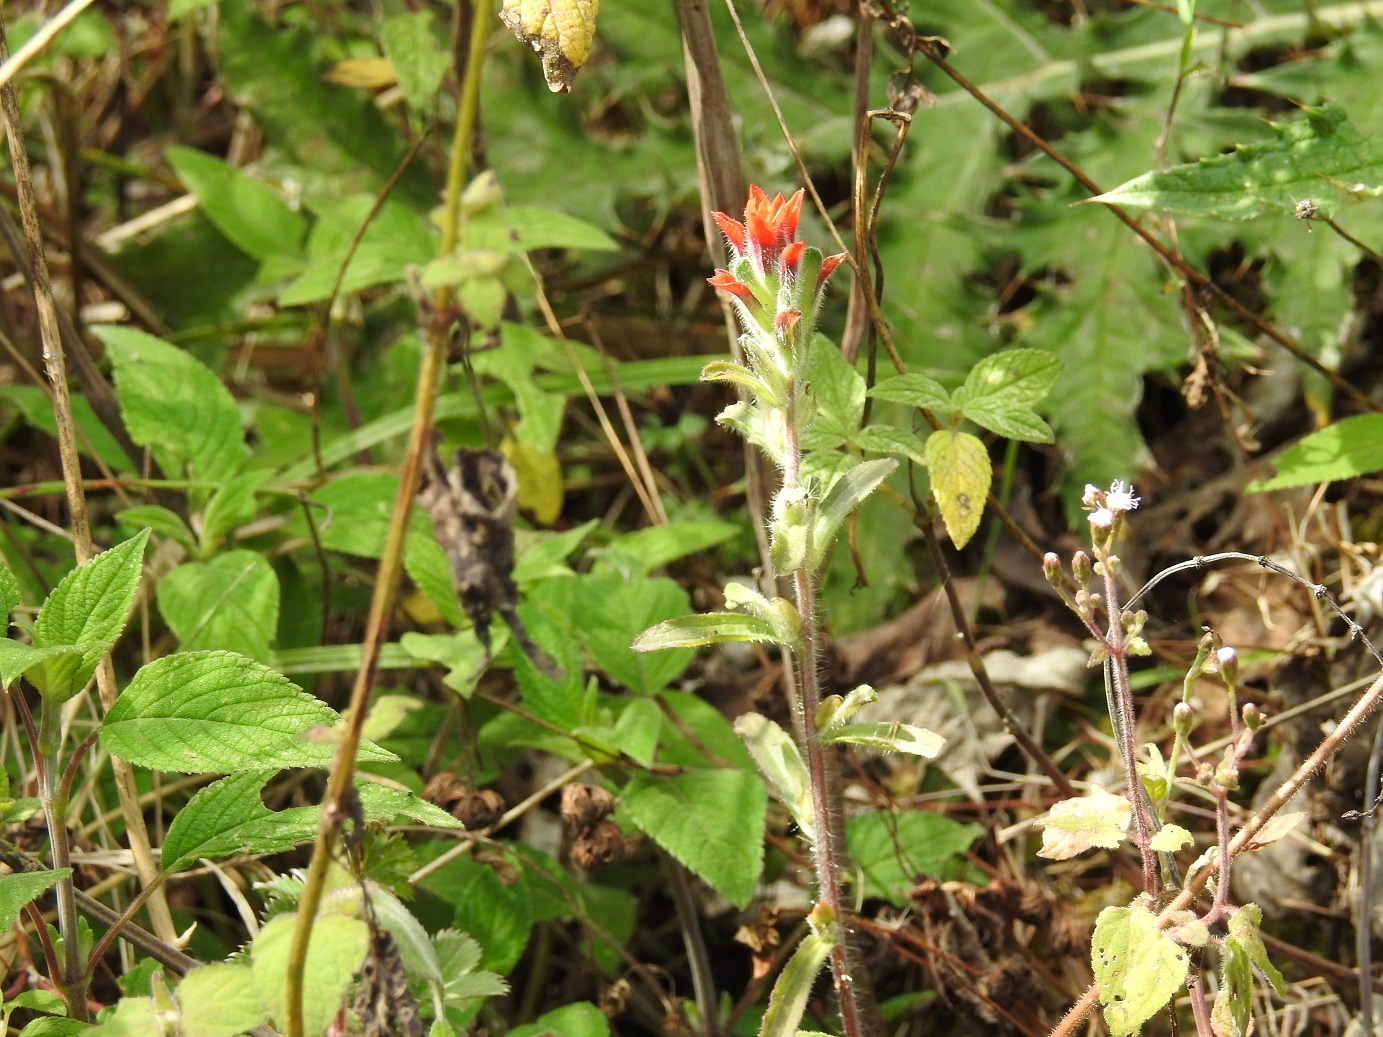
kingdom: Plantae
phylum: Tracheophyta
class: Magnoliopsida
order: Lamiales
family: Orobanchaceae
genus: Castilleja
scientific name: Castilleja arvensis
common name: Indian paintbrush
